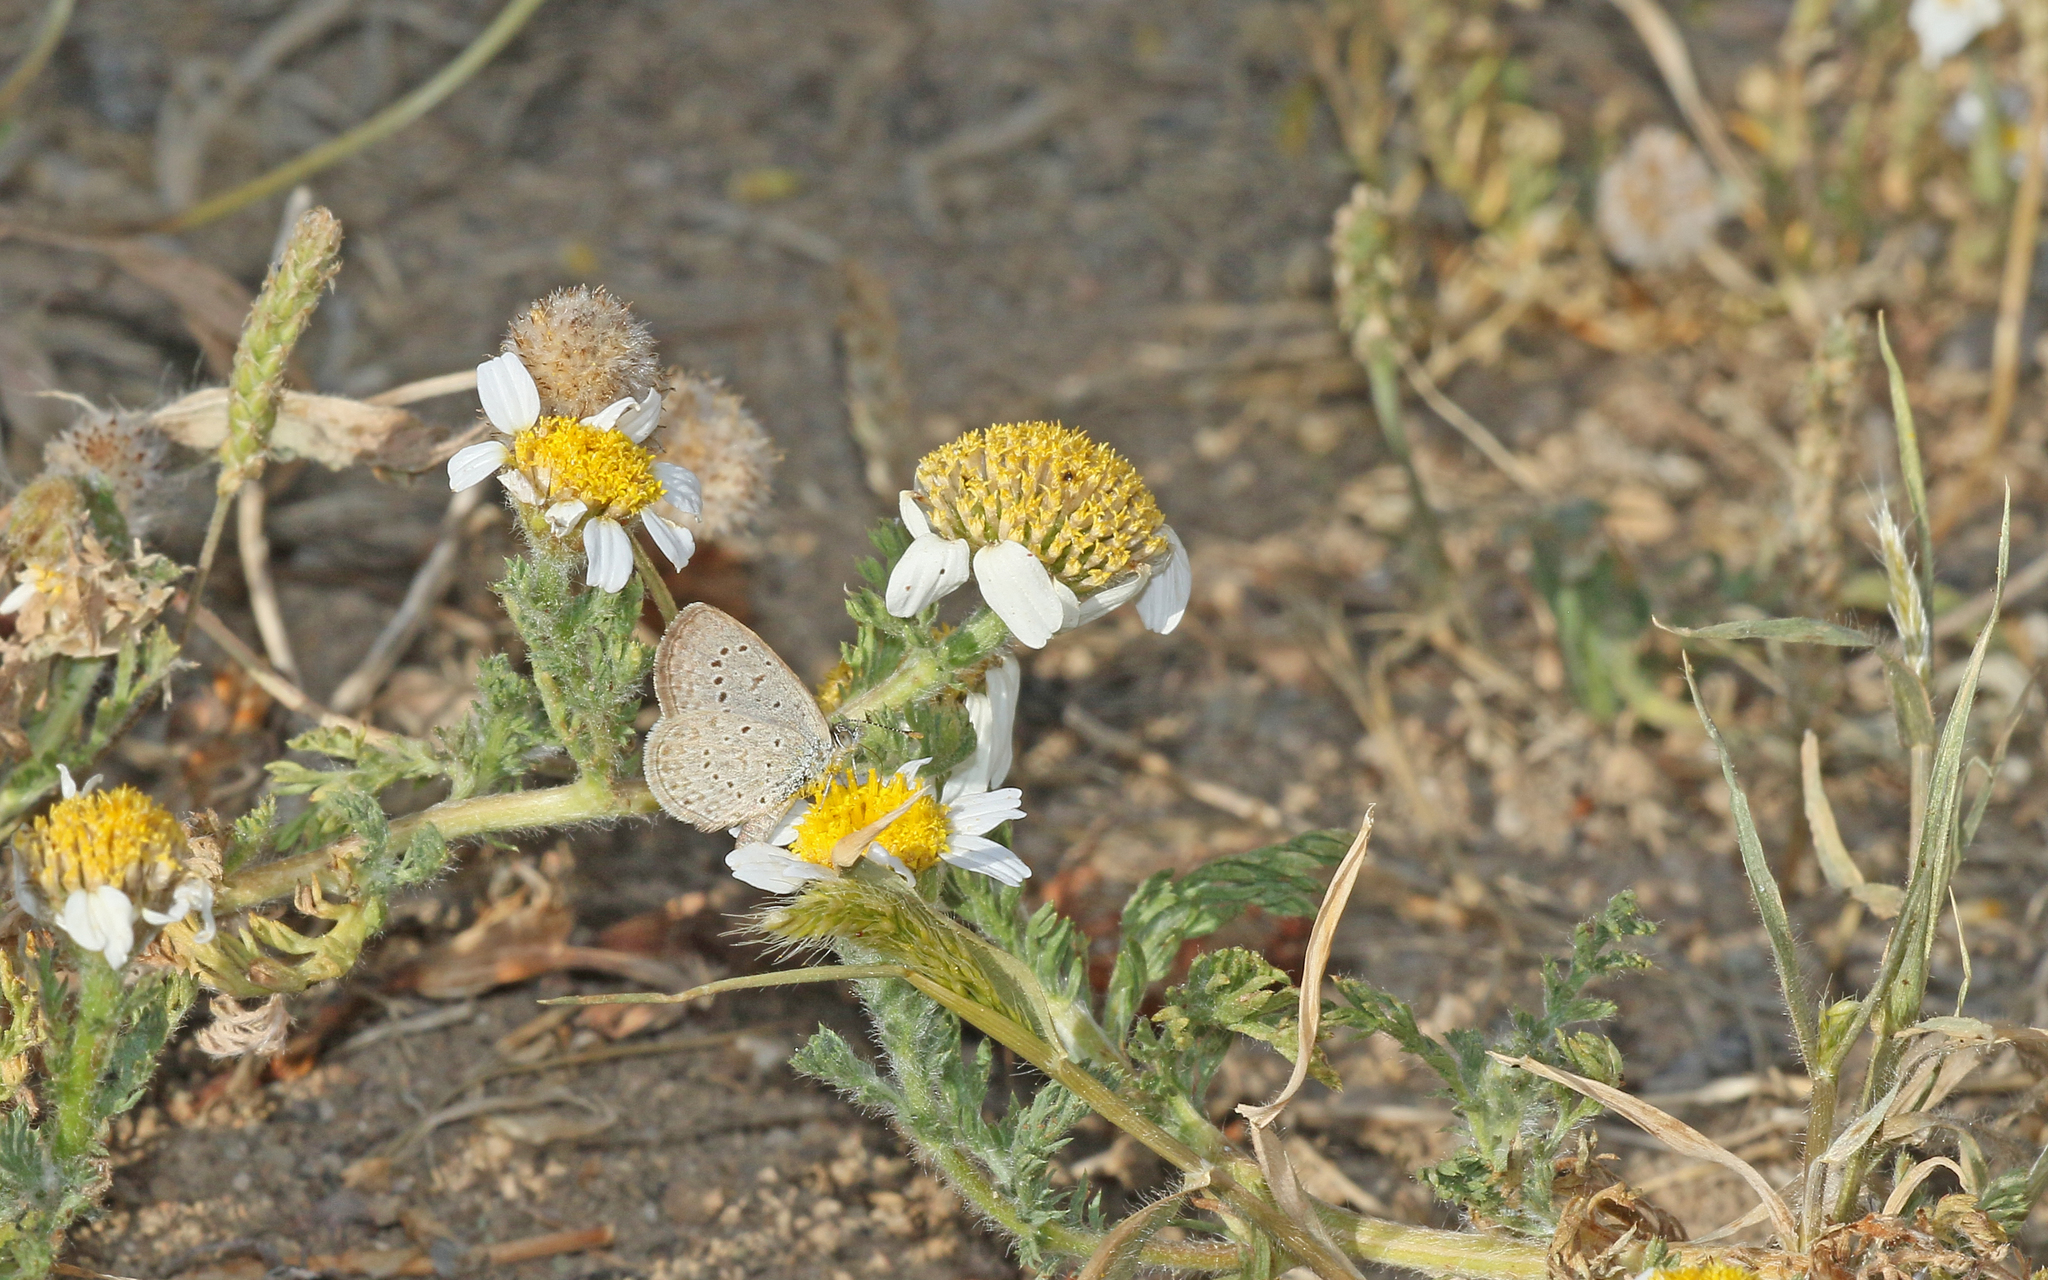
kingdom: Animalia
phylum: Arthropoda
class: Insecta
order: Lepidoptera
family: Lycaenidae
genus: Zizeeria
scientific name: Zizeeria knysna
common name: African grass blue
